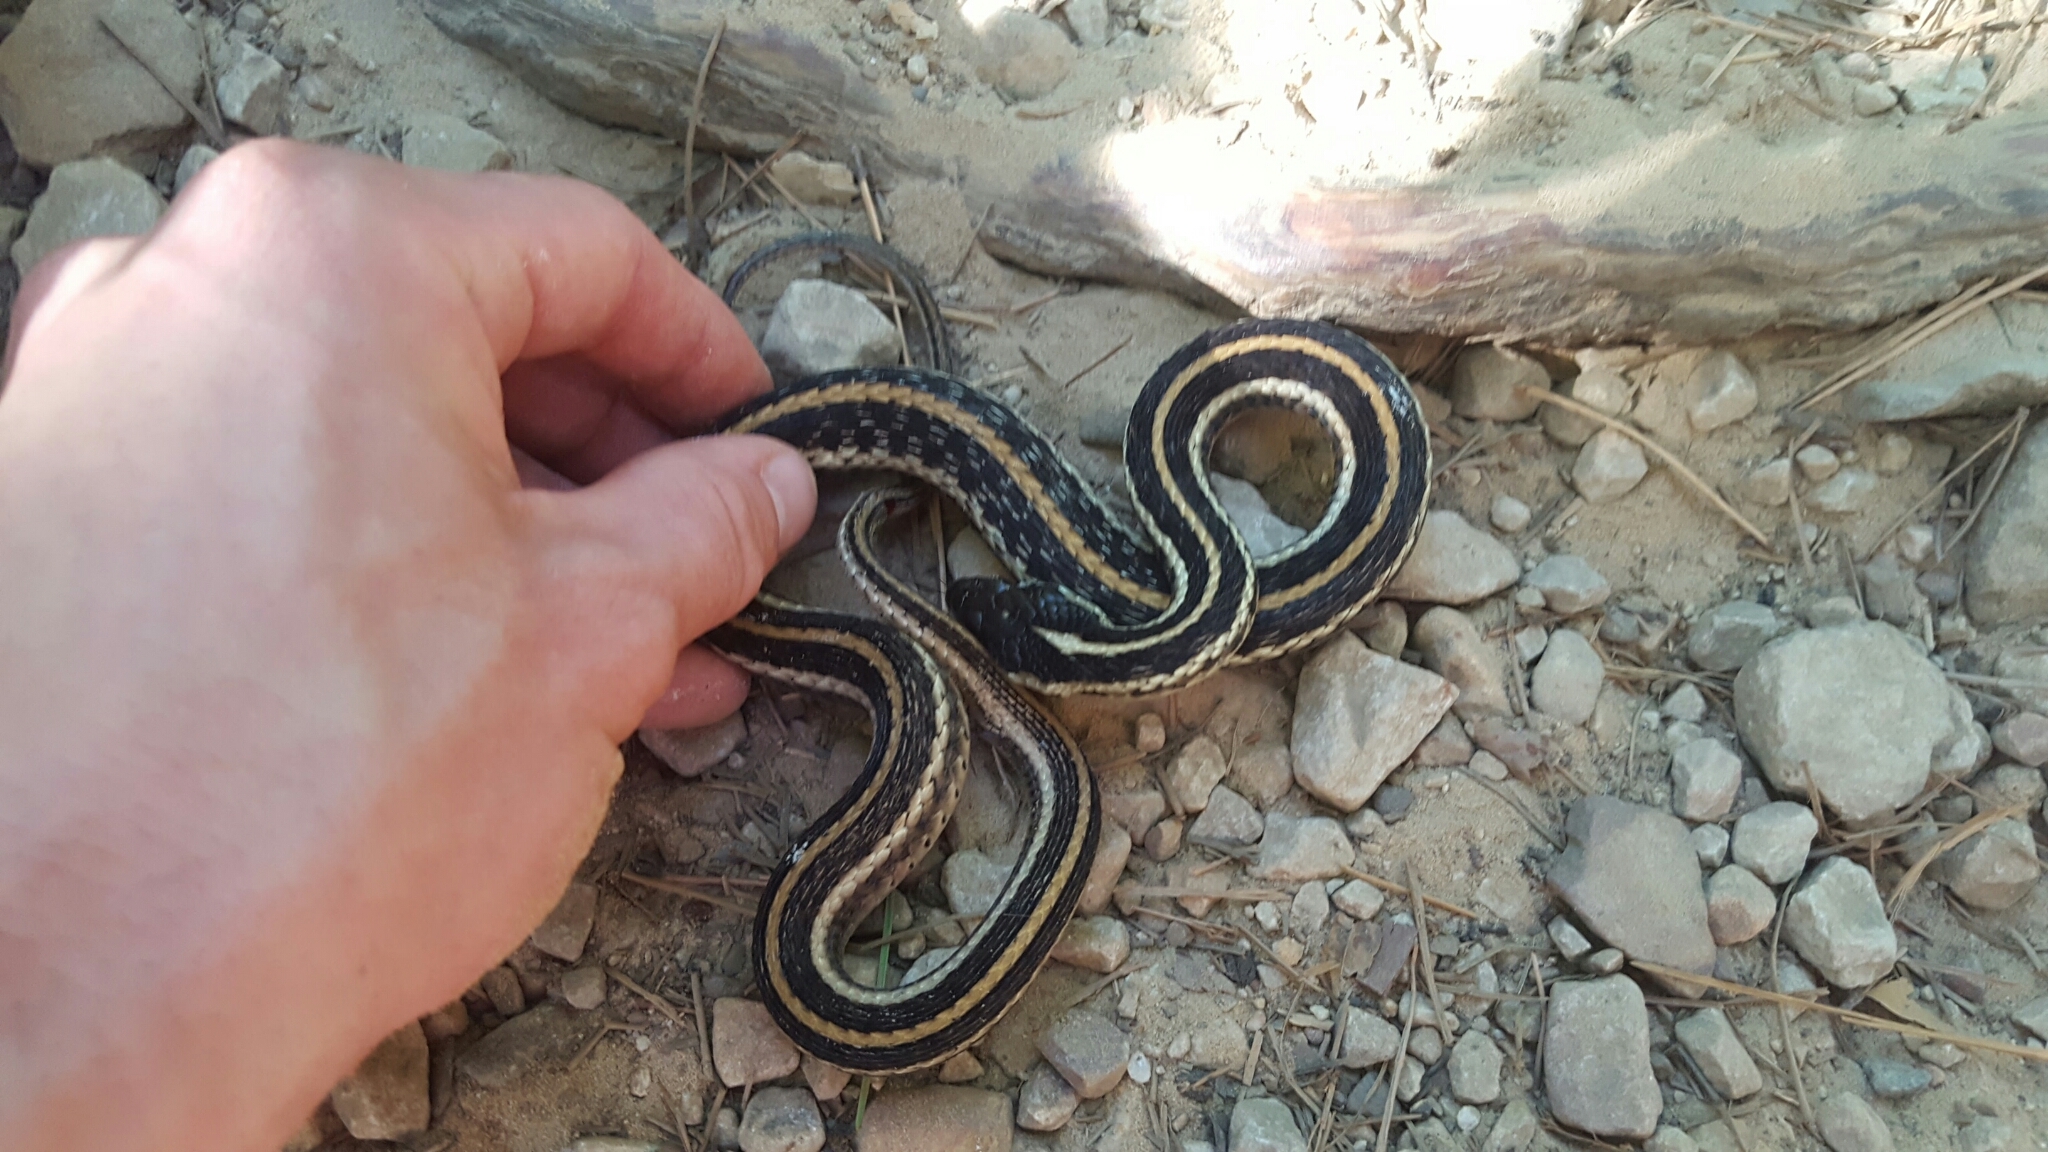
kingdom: Animalia
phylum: Chordata
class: Squamata
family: Colubridae
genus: Thamnophis
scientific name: Thamnophis sirtalis
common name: Common garter snake
